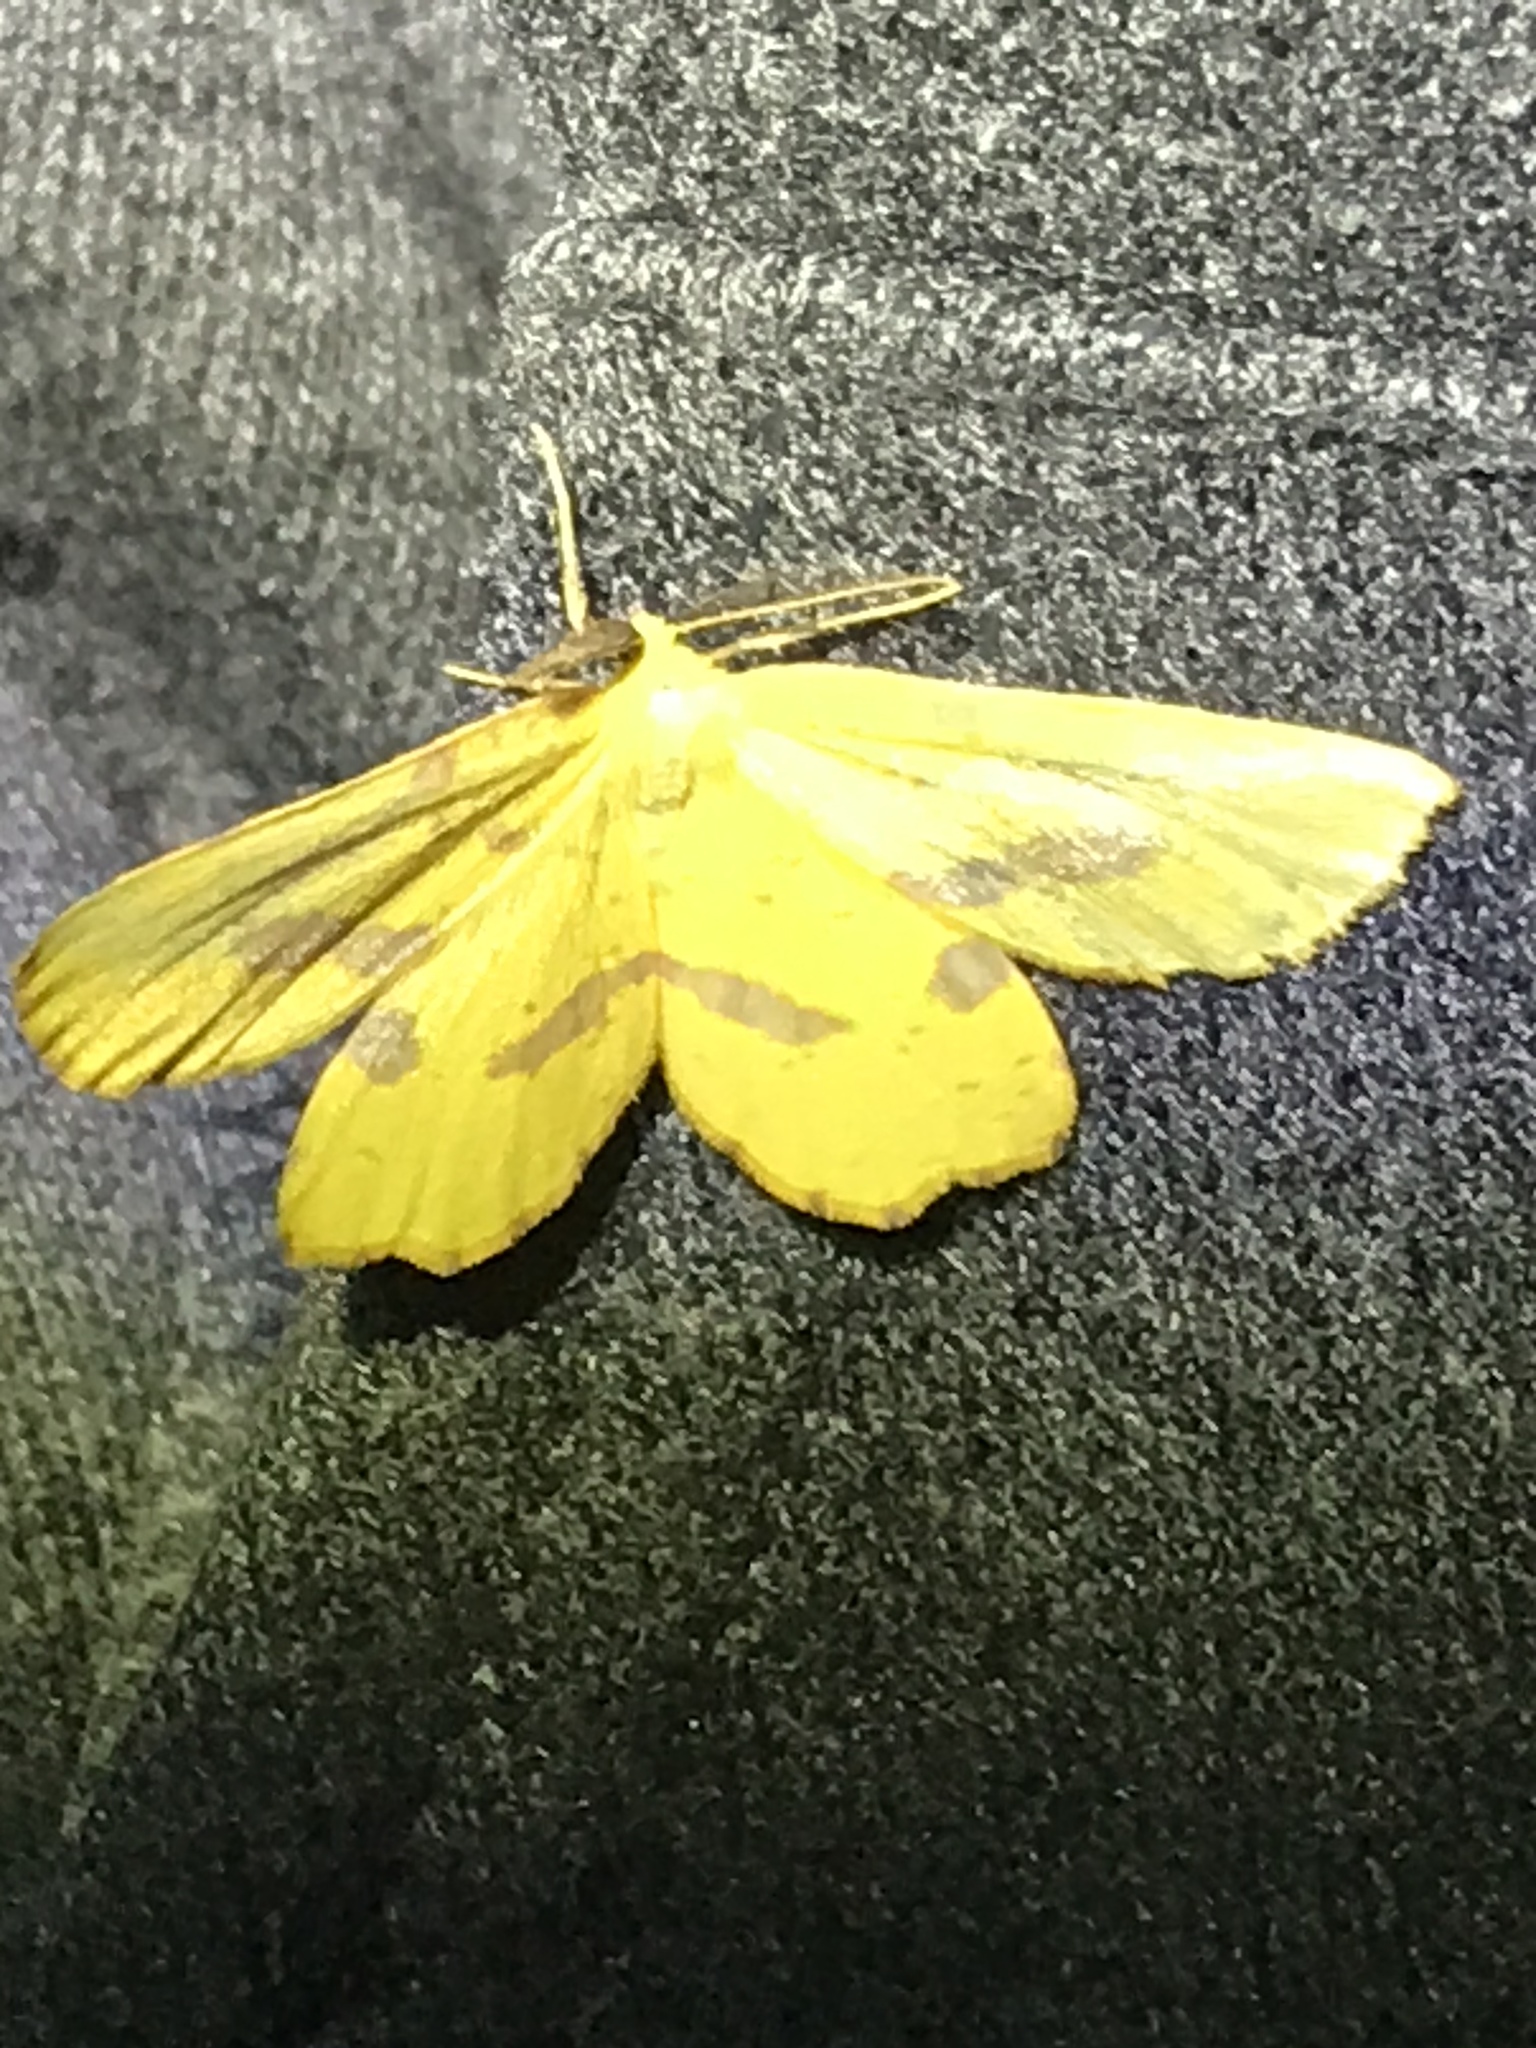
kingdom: Animalia
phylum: Arthropoda
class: Insecta
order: Lepidoptera
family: Geometridae
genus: Xanthotype
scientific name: Xanthotype
